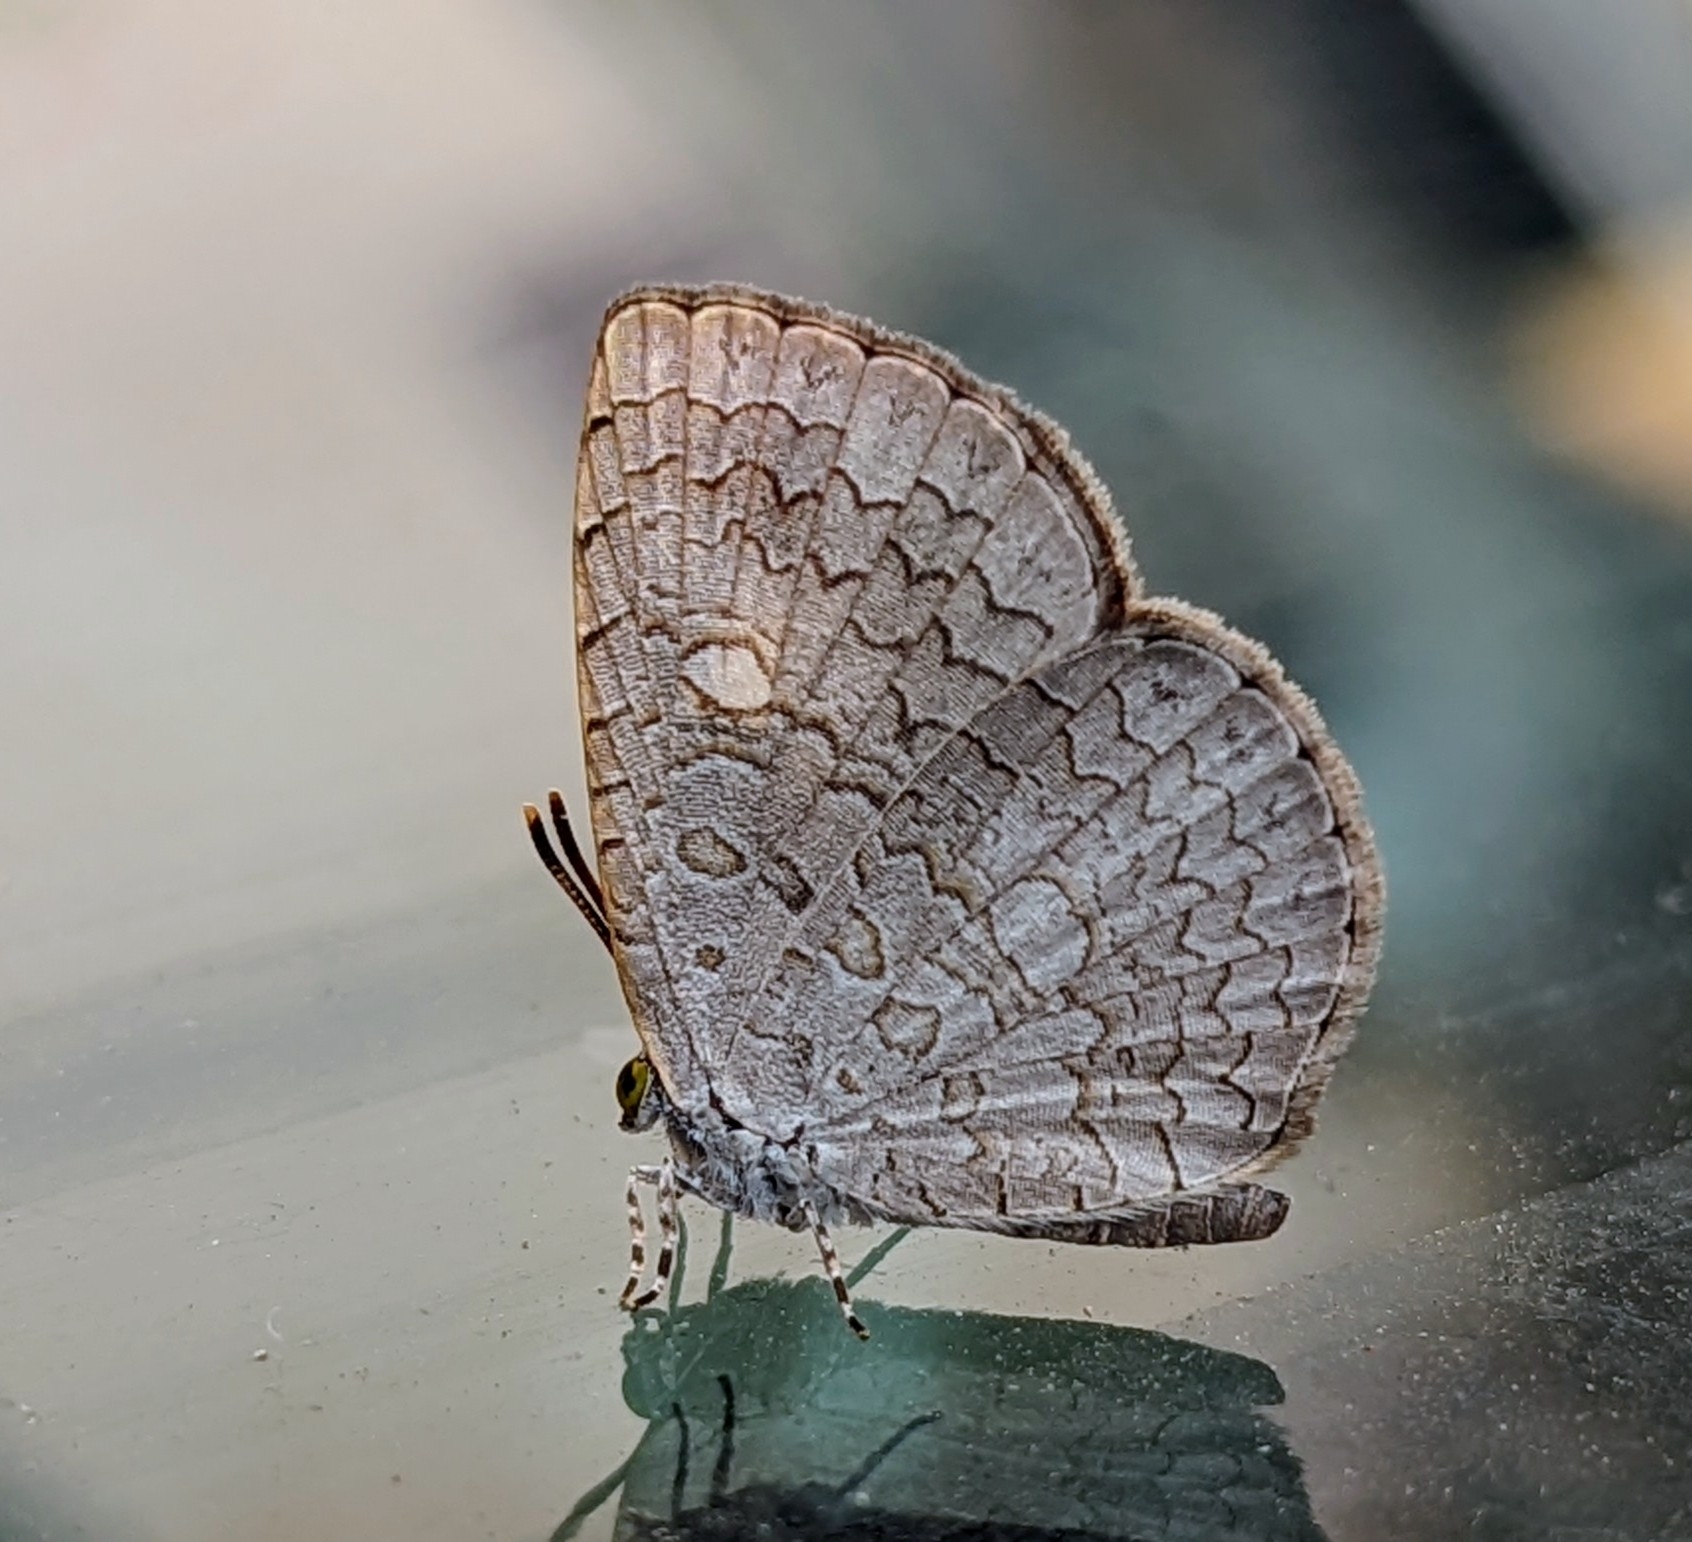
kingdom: Animalia
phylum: Arthropoda
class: Insecta
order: Lepidoptera
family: Lycaenidae
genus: Spalgis
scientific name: Spalgis epius
